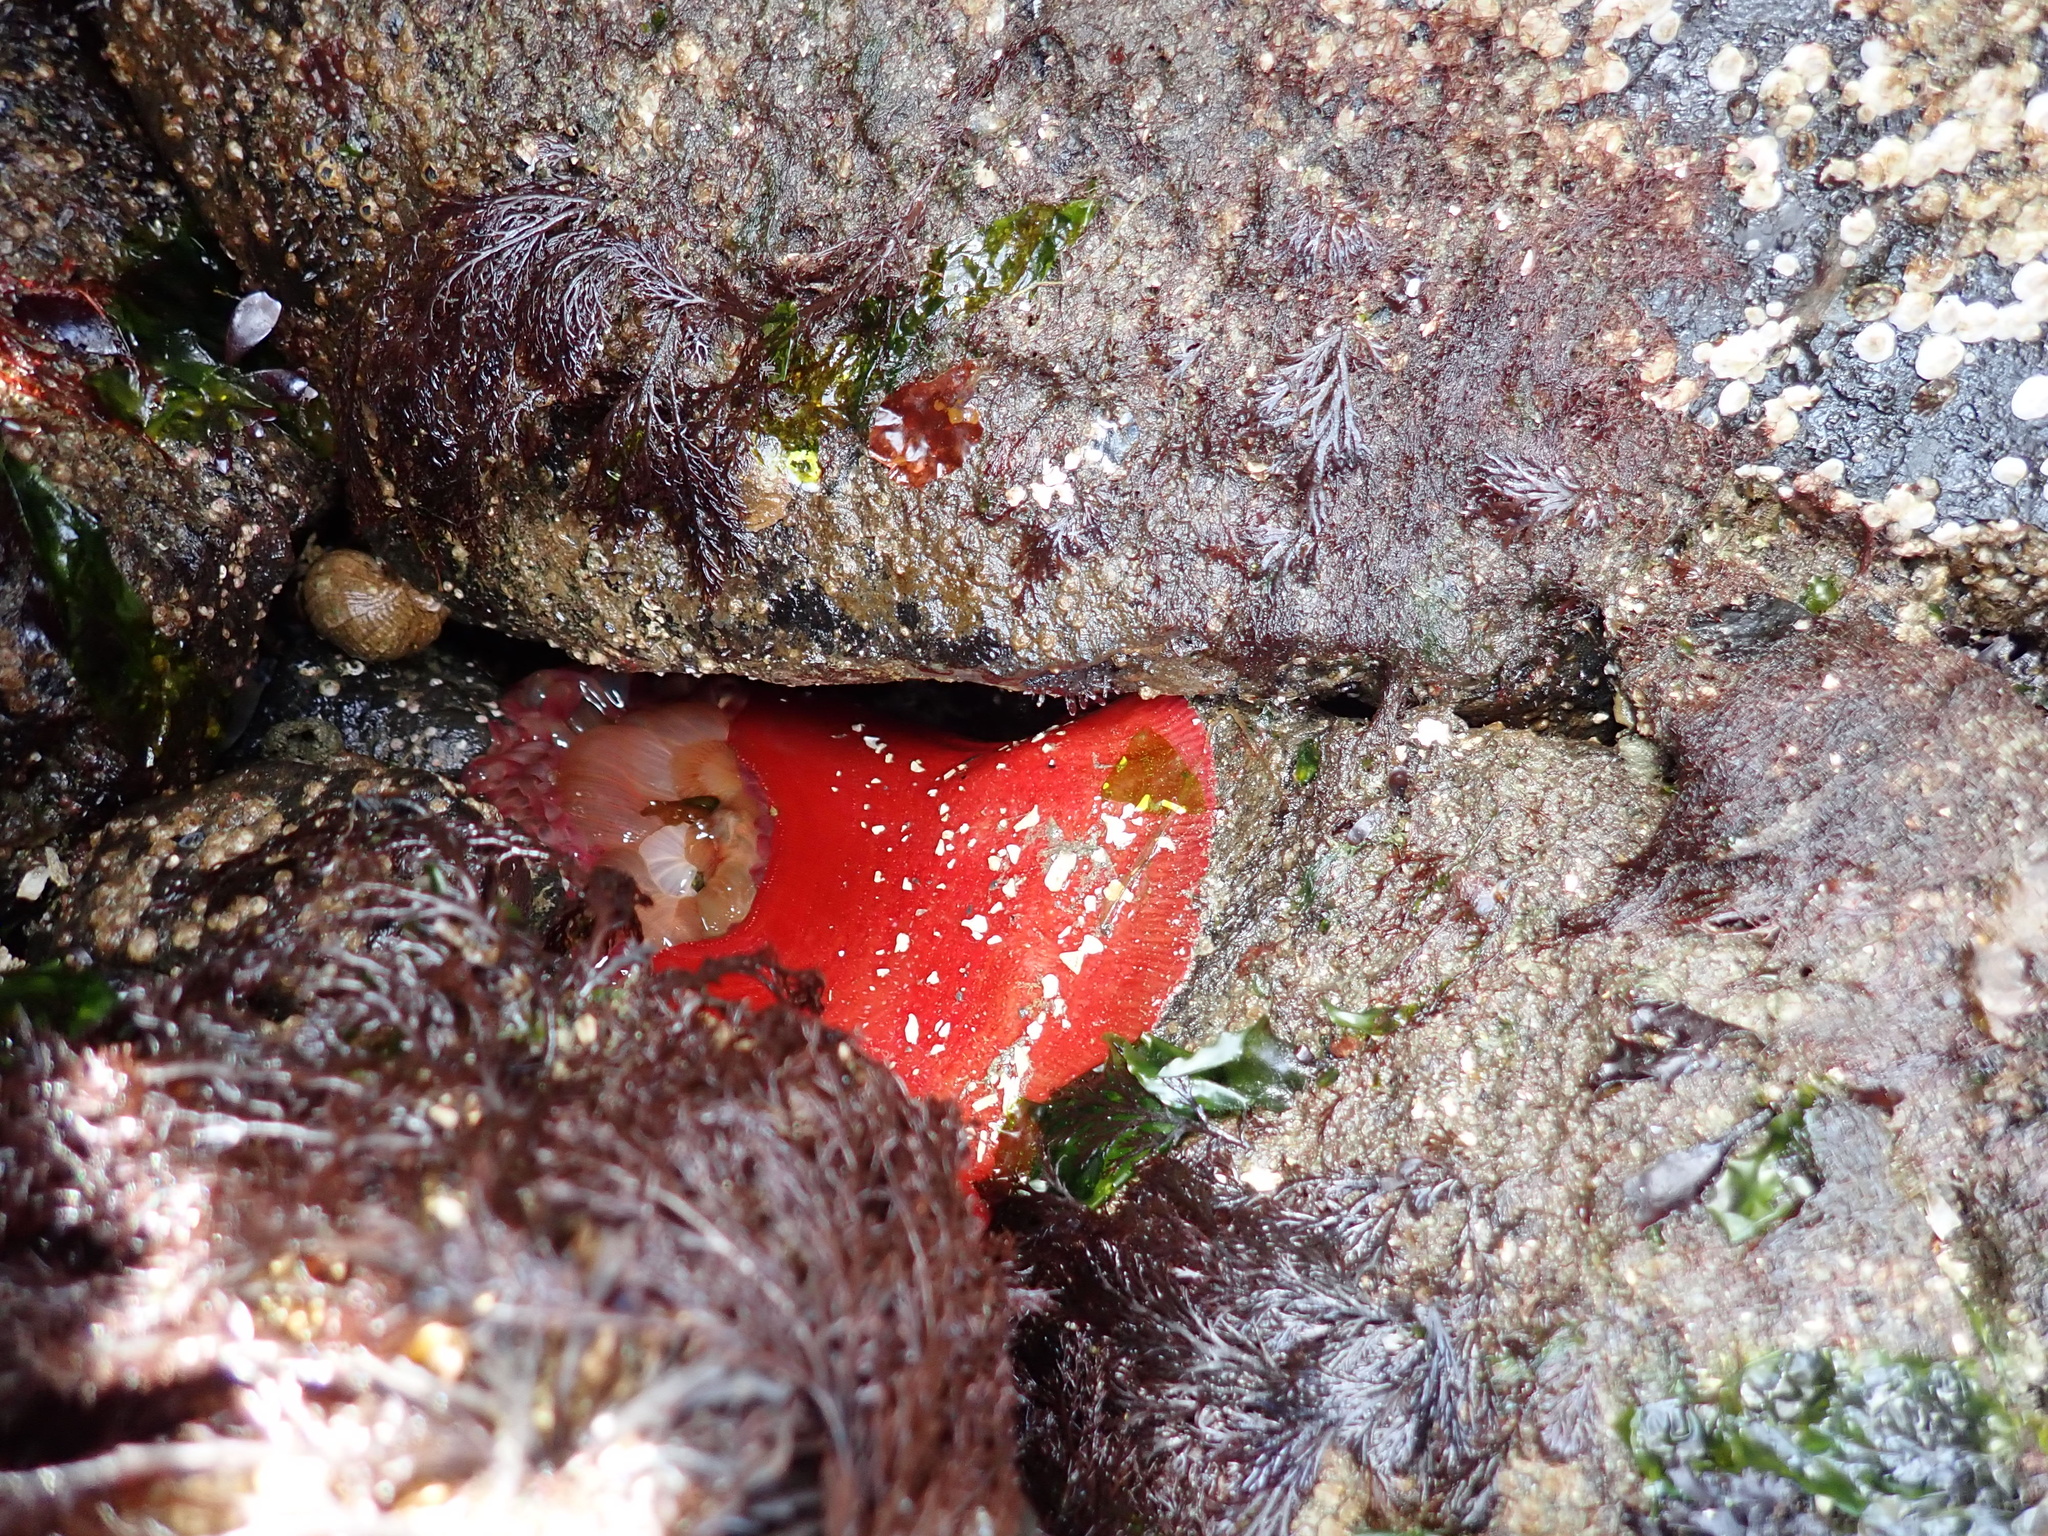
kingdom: Animalia
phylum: Cnidaria
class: Anthozoa
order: Actiniaria
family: Actiniidae
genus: Urticina
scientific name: Urticina grebelnyi
